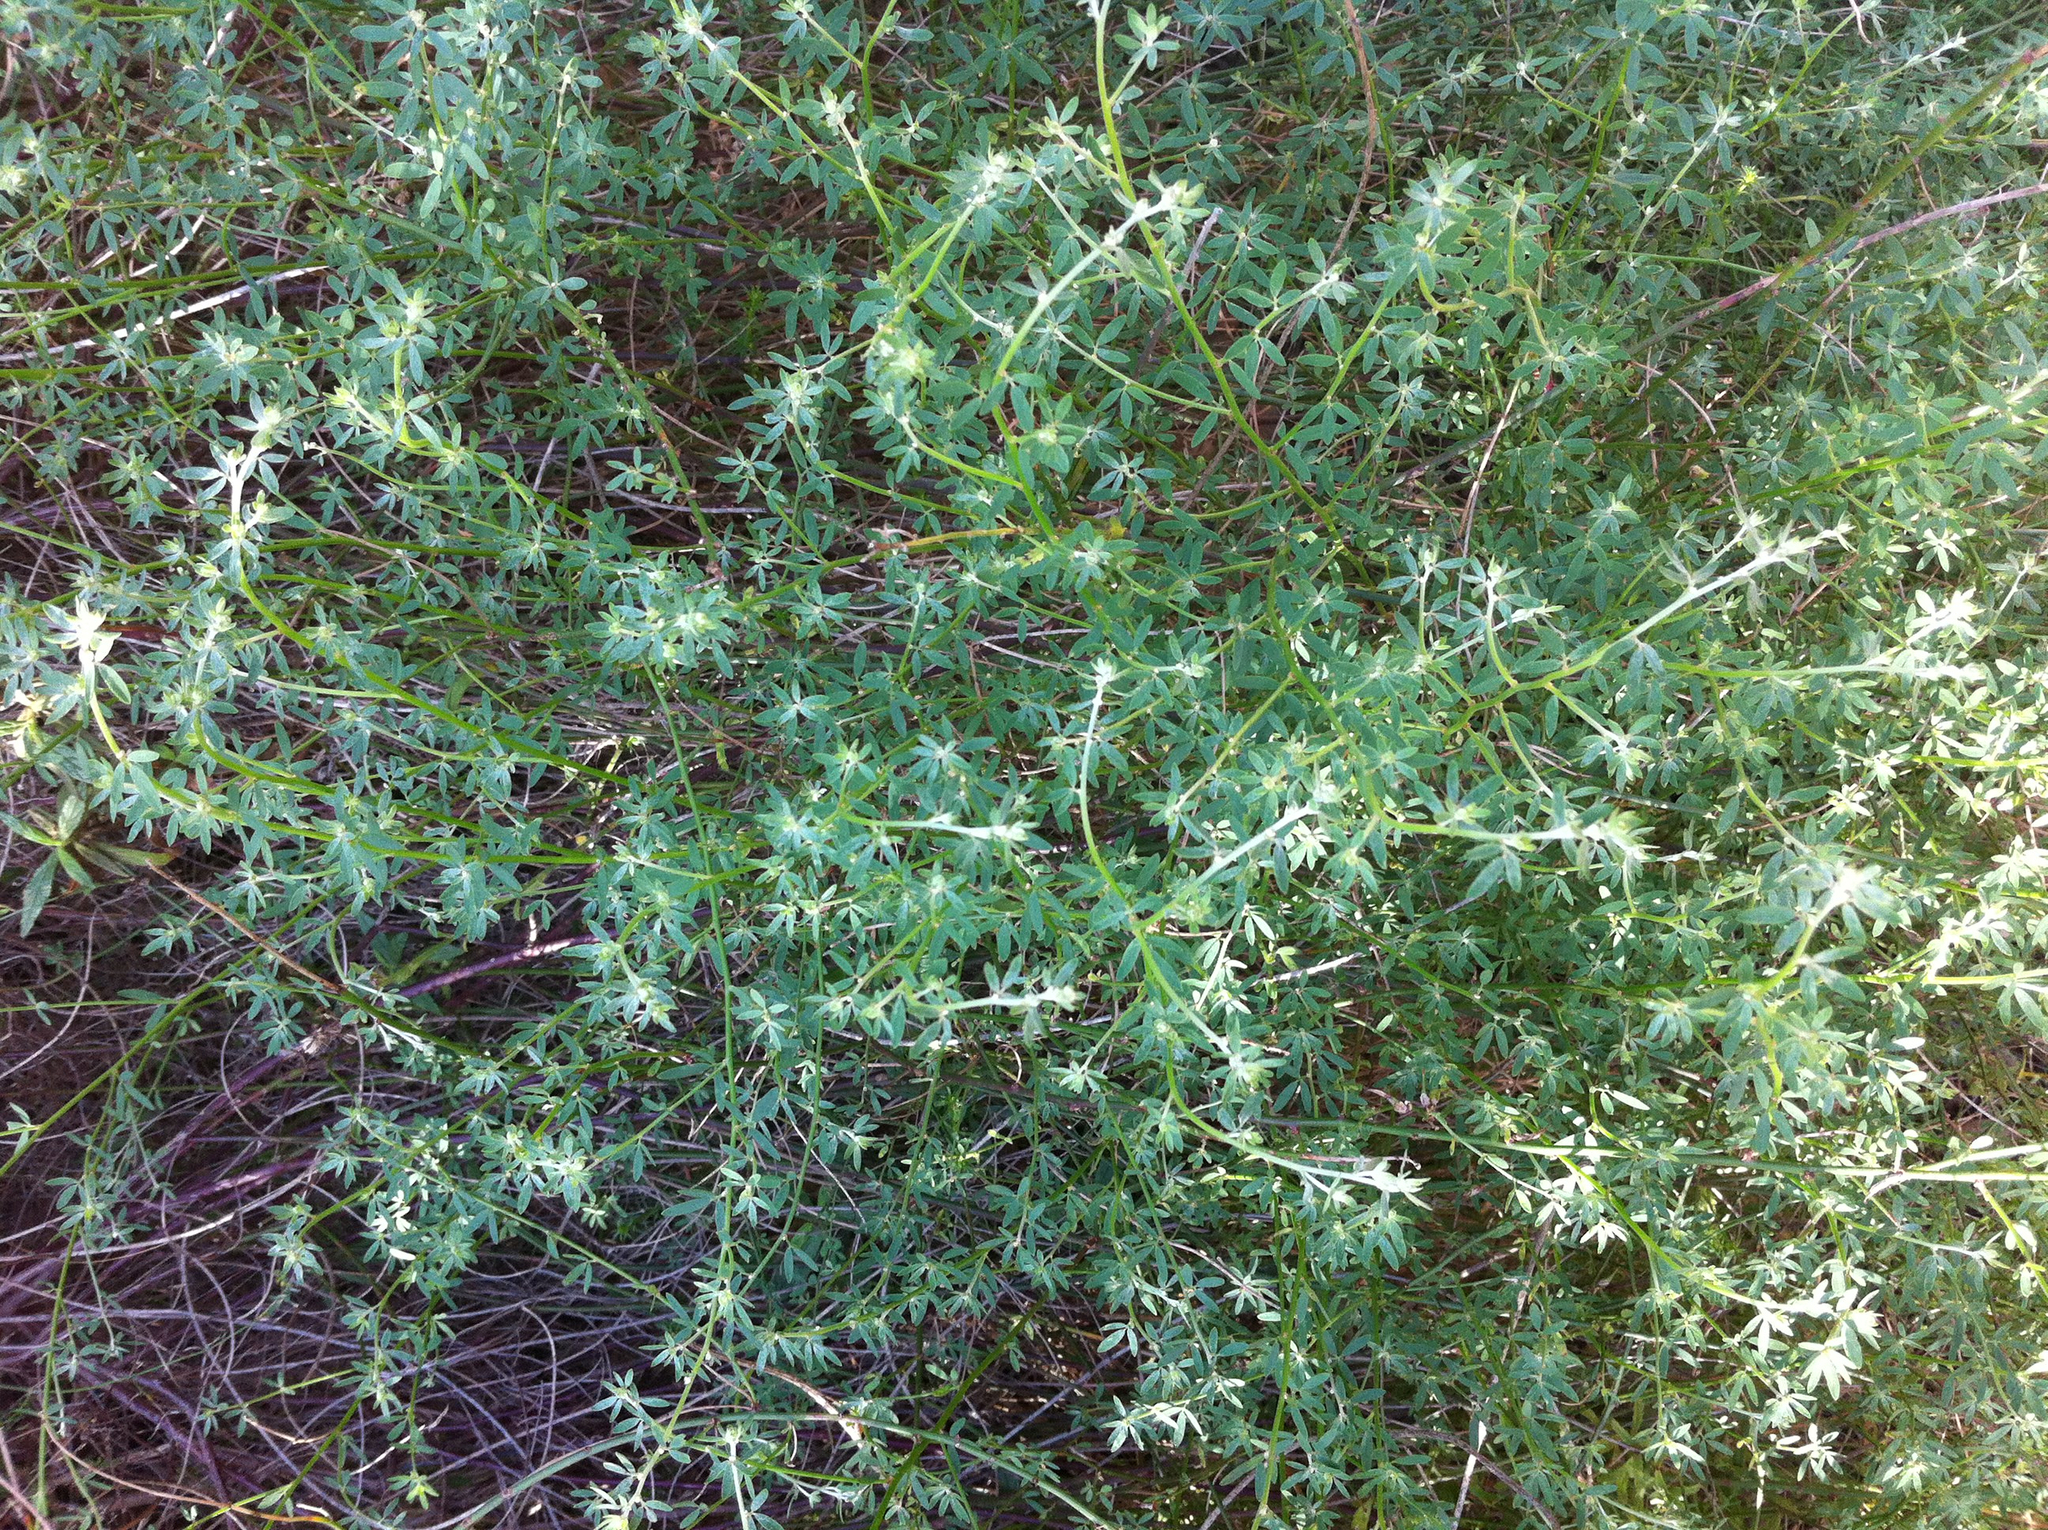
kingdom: Plantae
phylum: Tracheophyta
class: Magnoliopsida
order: Fabales
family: Fabaceae
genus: Acmispon
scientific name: Acmispon glaber
